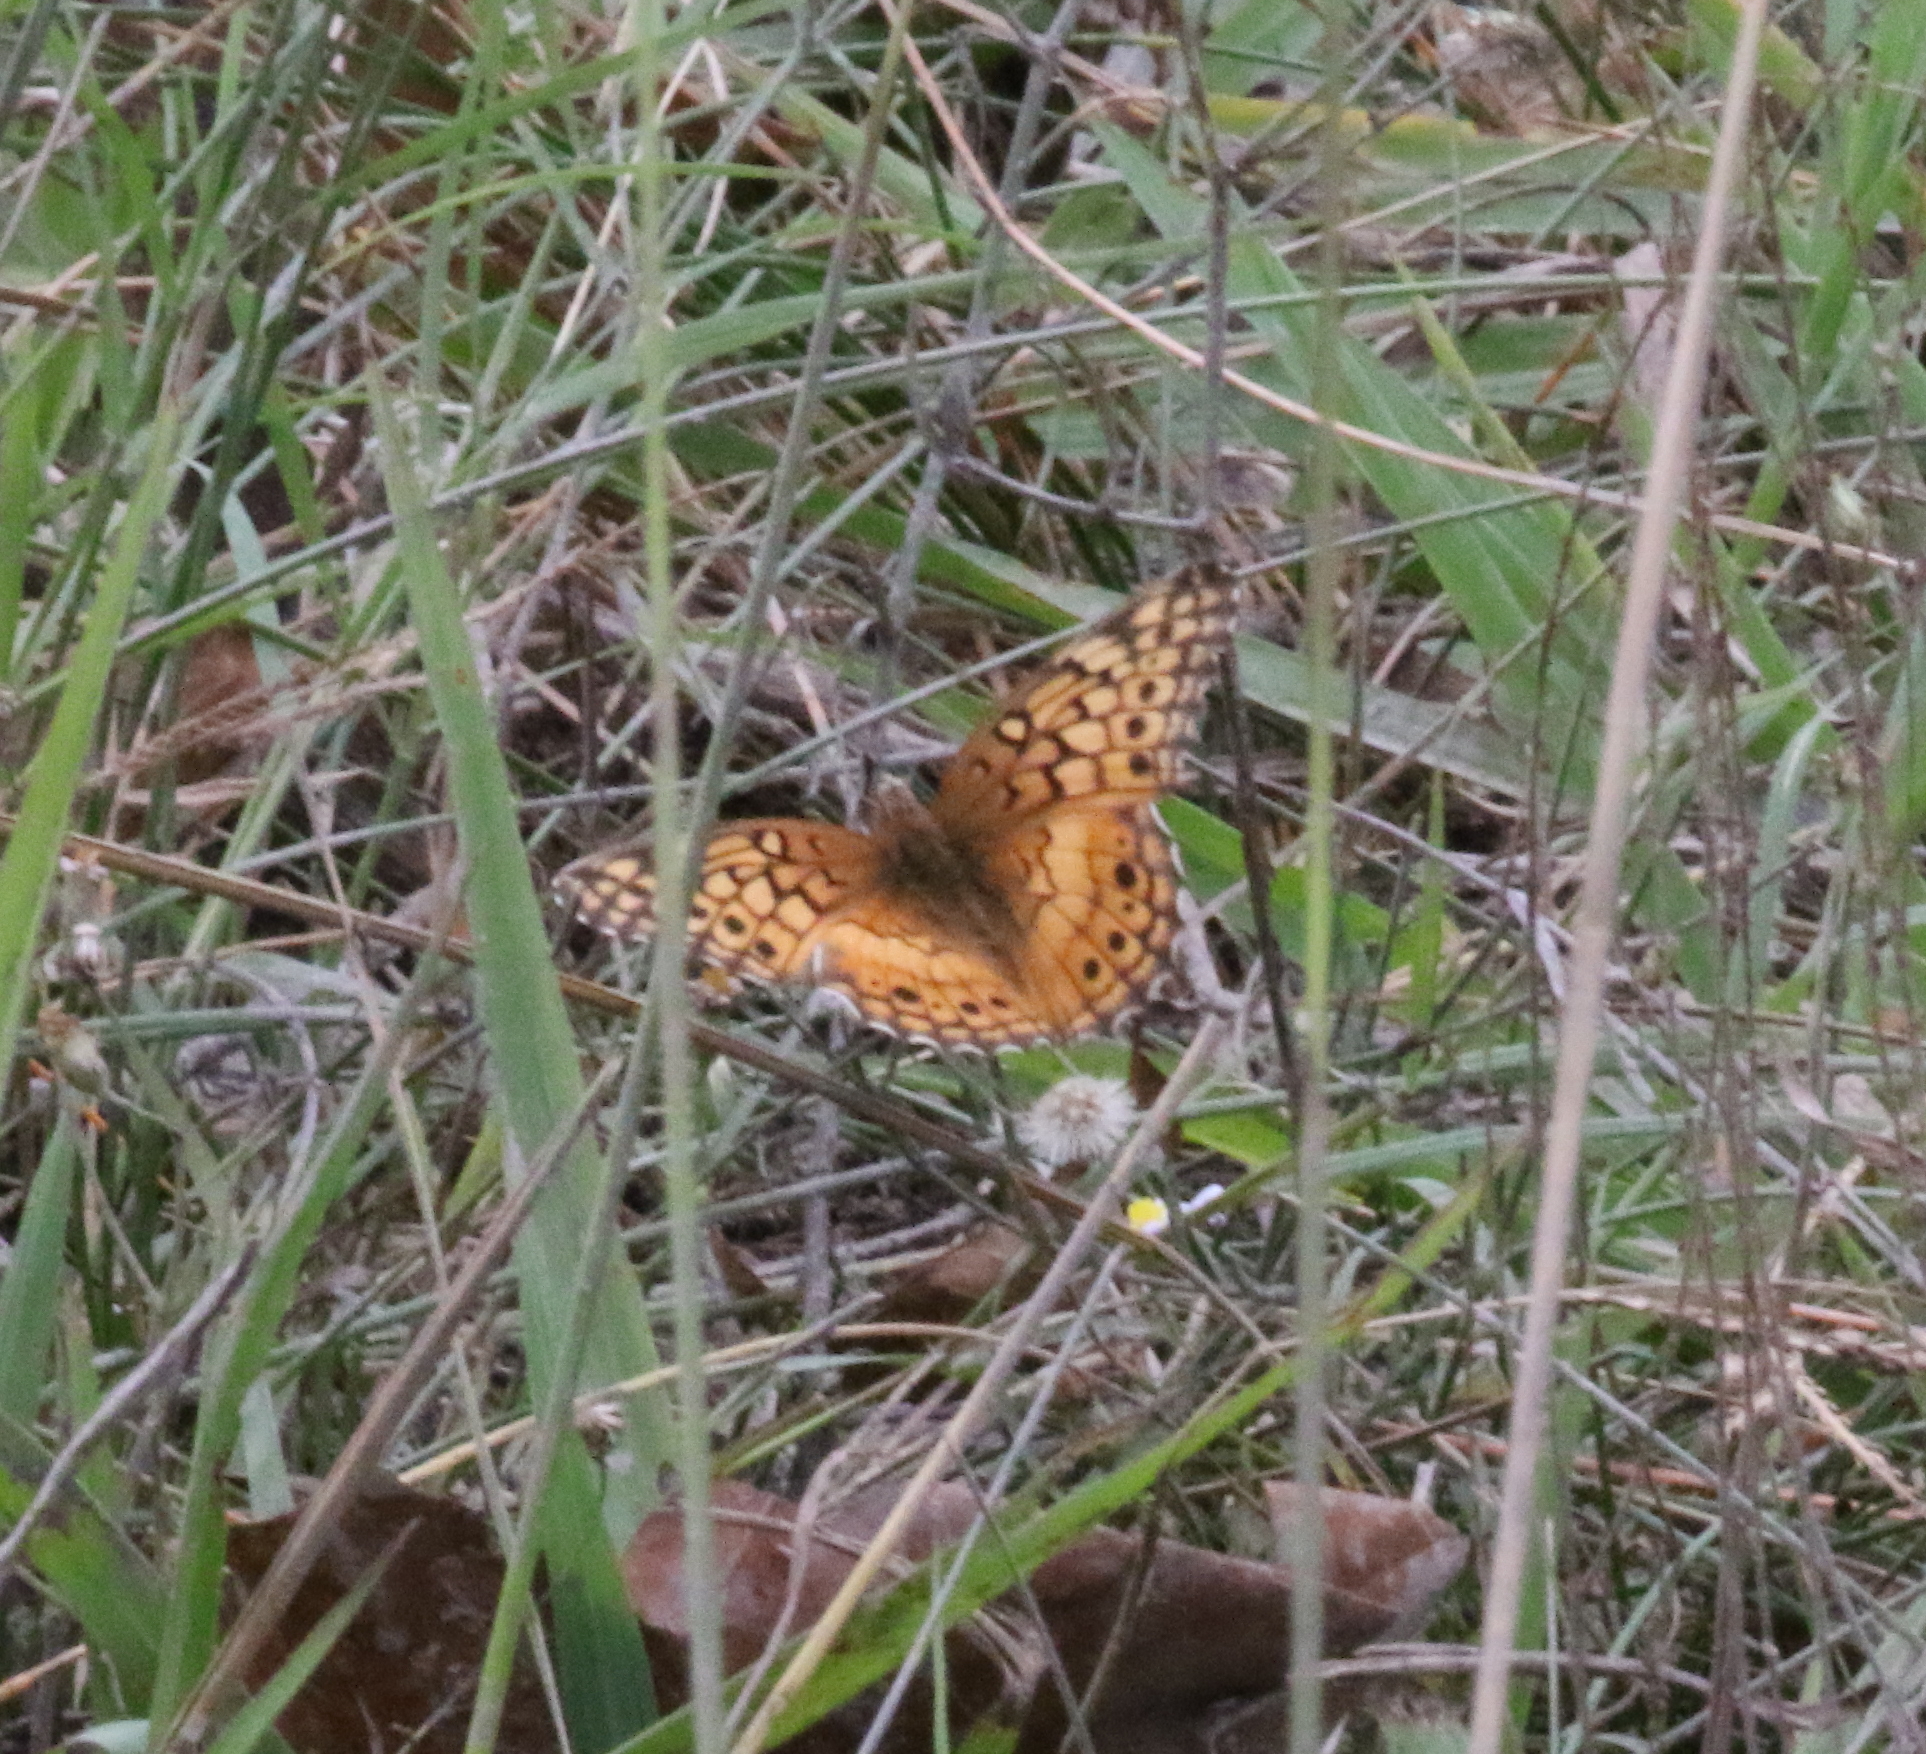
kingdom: Animalia
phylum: Arthropoda
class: Insecta
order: Lepidoptera
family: Nymphalidae
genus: Euptoieta
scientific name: Euptoieta claudia
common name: Variegated fritillary
